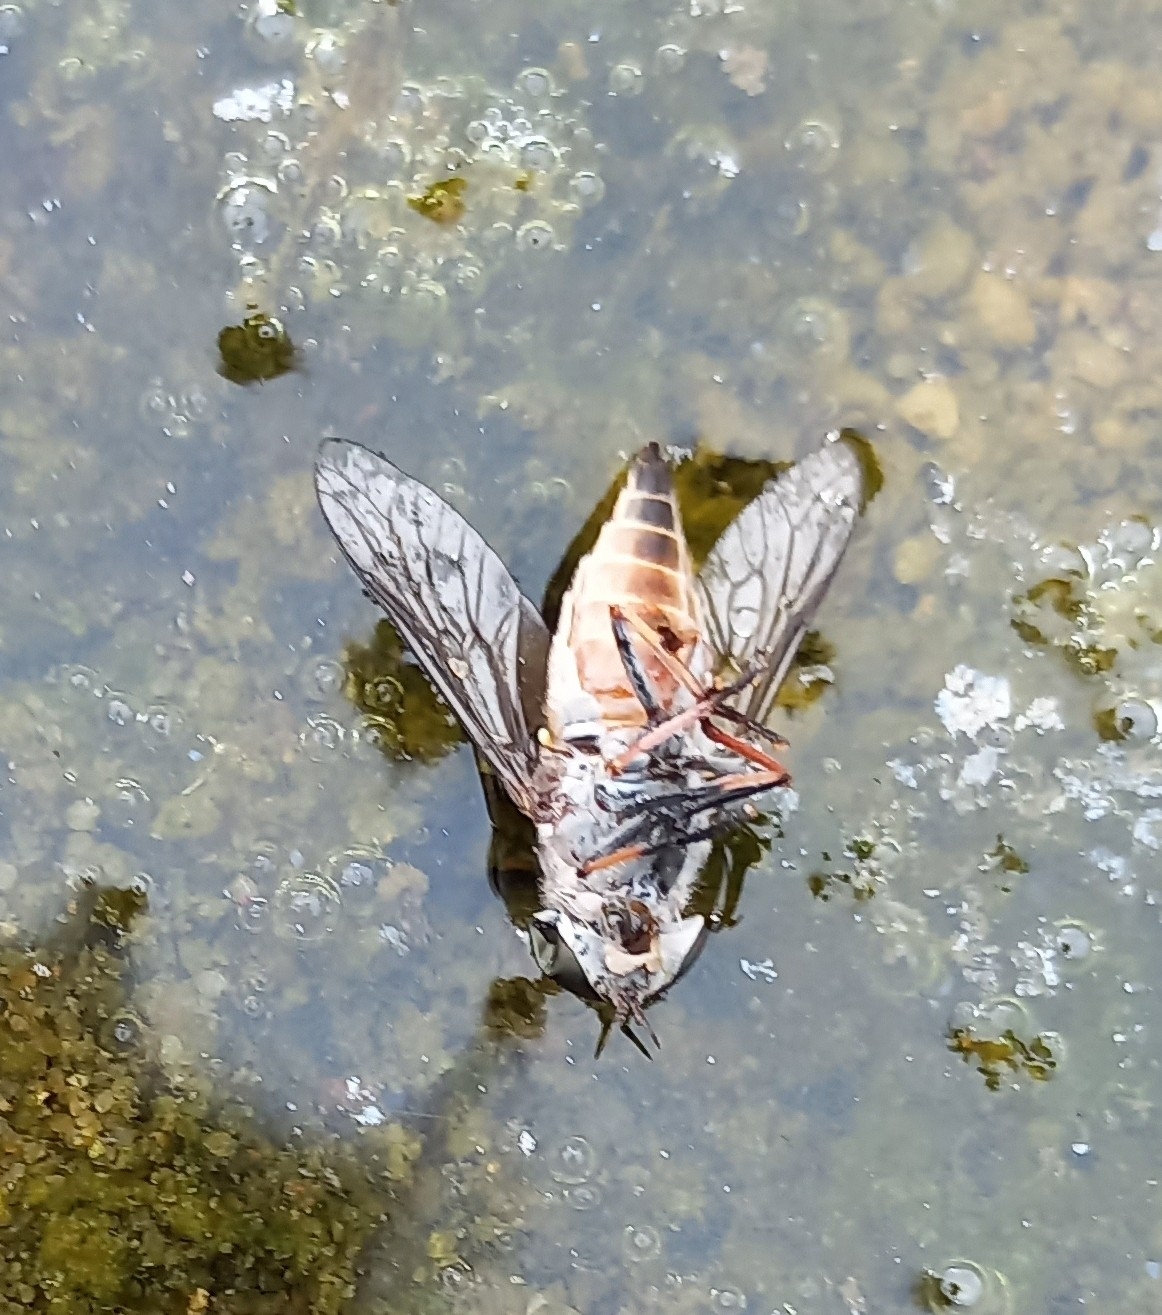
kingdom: Animalia
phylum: Arthropoda
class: Insecta
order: Diptera
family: Tabanidae
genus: Tabanus
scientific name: Tabanus taeniola
